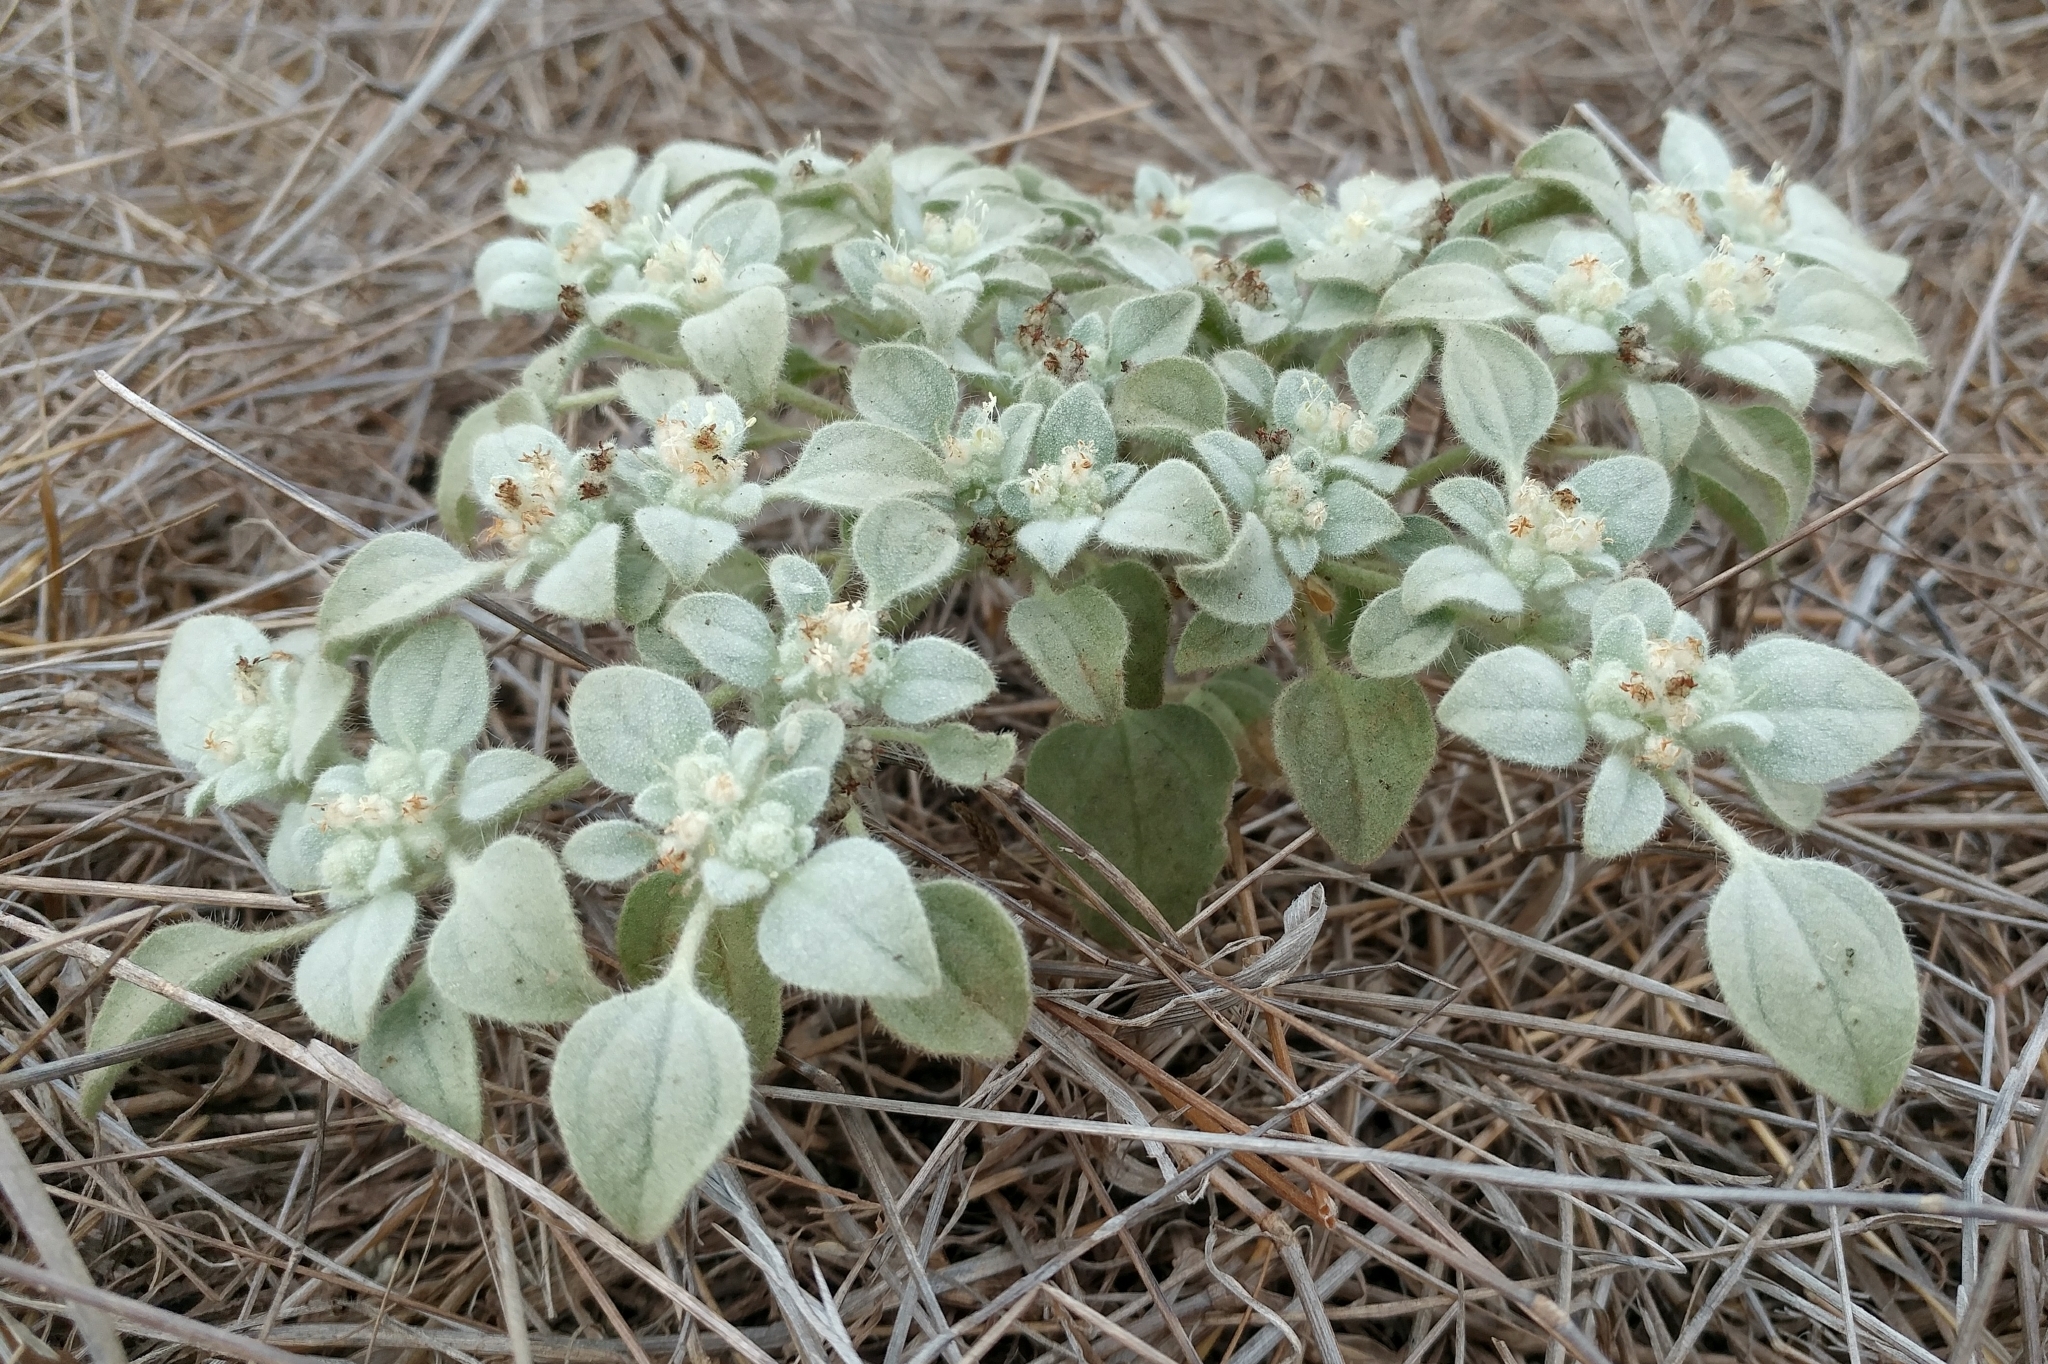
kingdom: Plantae
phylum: Tracheophyta
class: Magnoliopsida
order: Malpighiales
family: Euphorbiaceae
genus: Croton
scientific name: Croton setiger
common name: Dove weed
